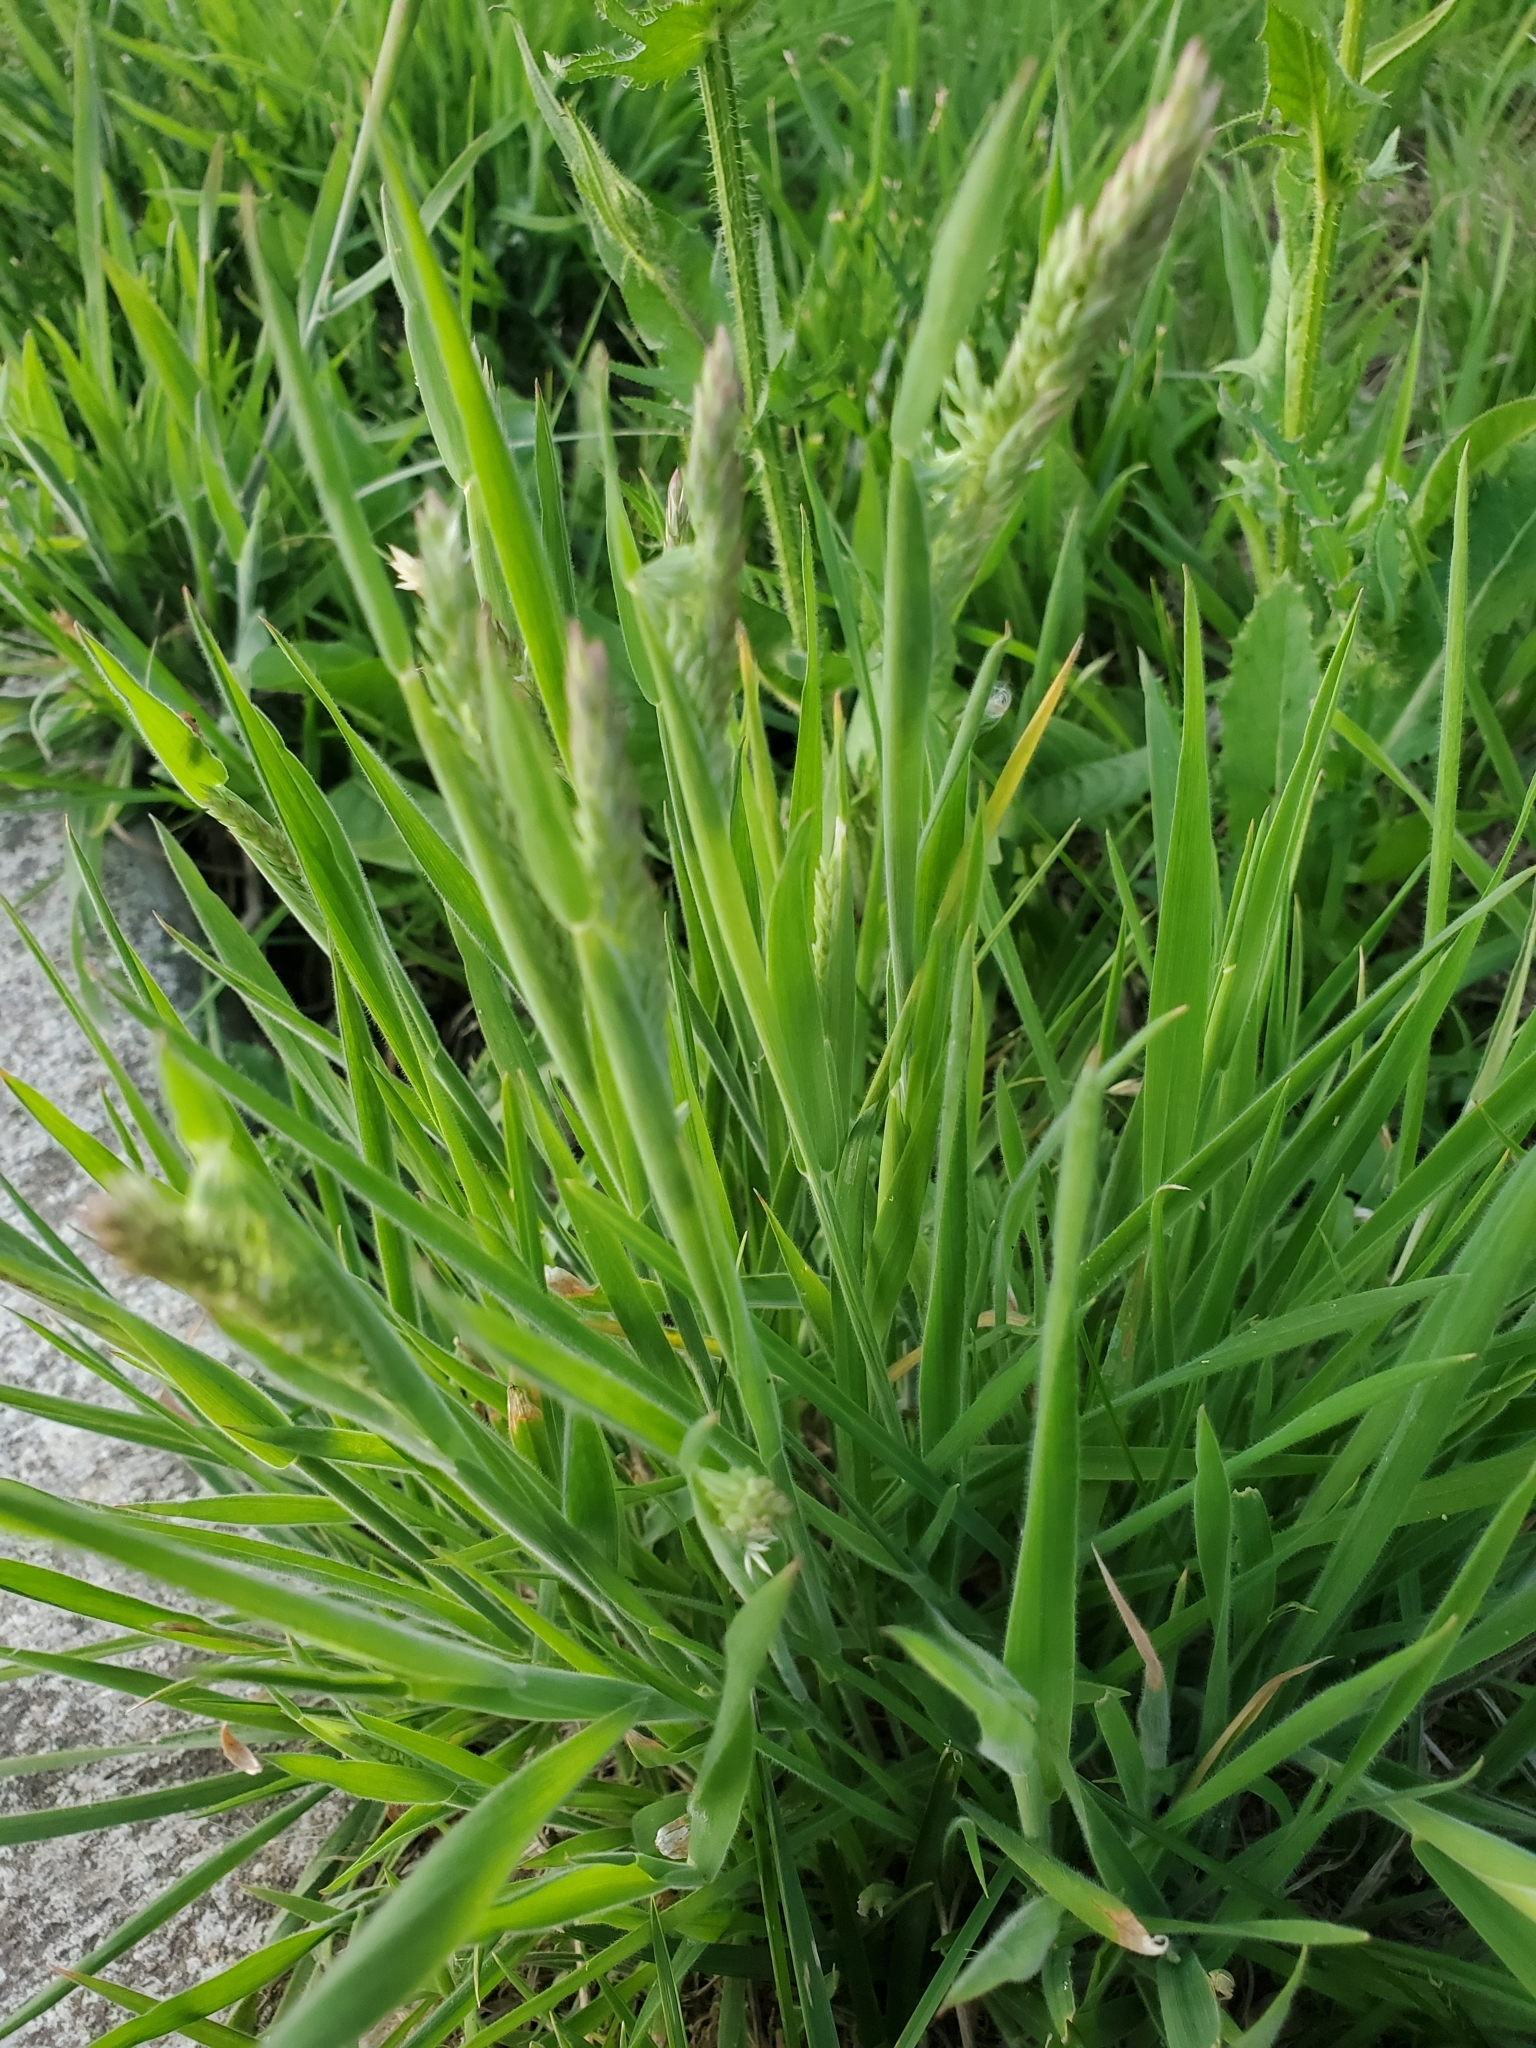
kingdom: Plantae
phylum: Tracheophyta
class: Liliopsida
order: Poales
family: Poaceae
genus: Holcus
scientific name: Holcus lanatus
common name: Yorkshire-fog
